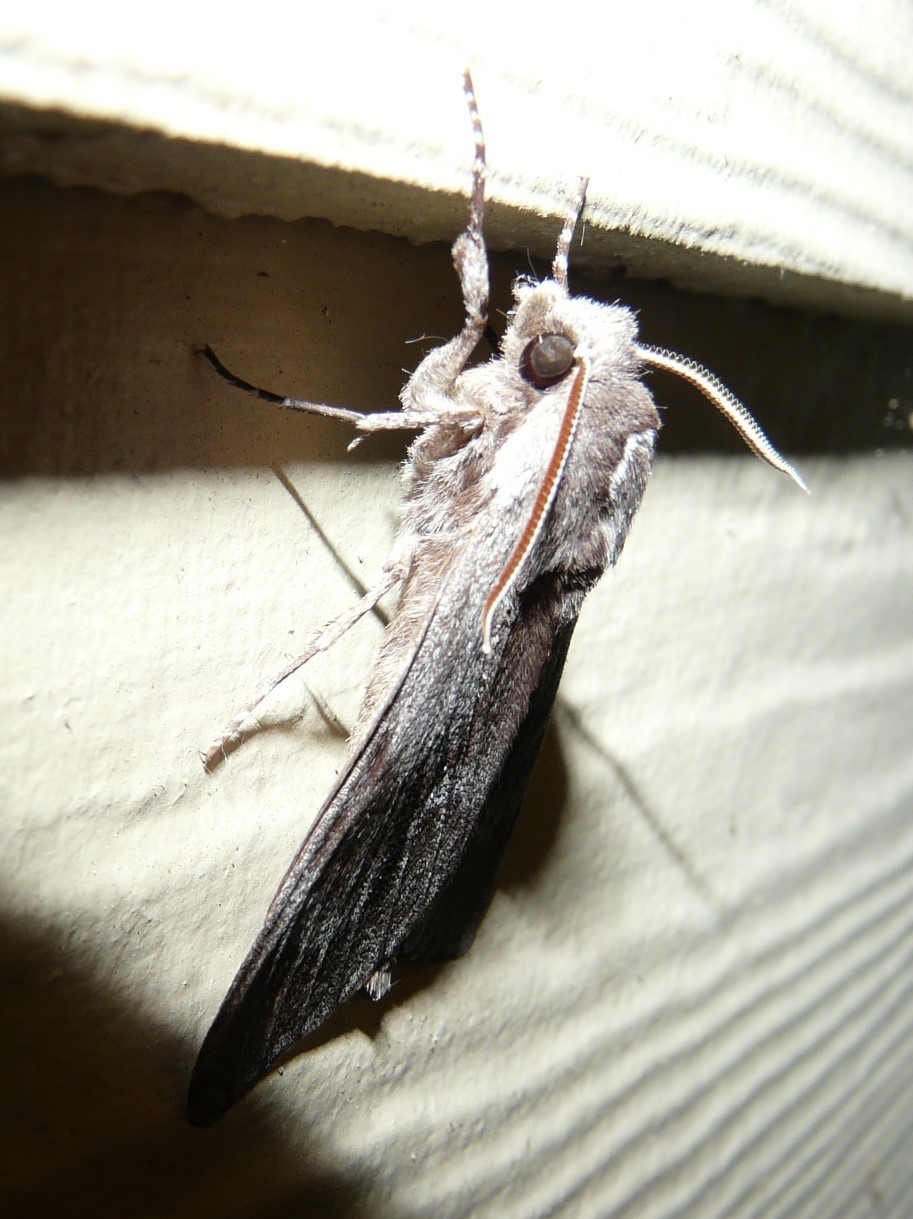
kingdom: Animalia
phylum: Arthropoda
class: Insecta
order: Lepidoptera
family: Sphingidae
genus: Lapara
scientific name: Lapara coniferarum
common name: Southern pine sphinx
